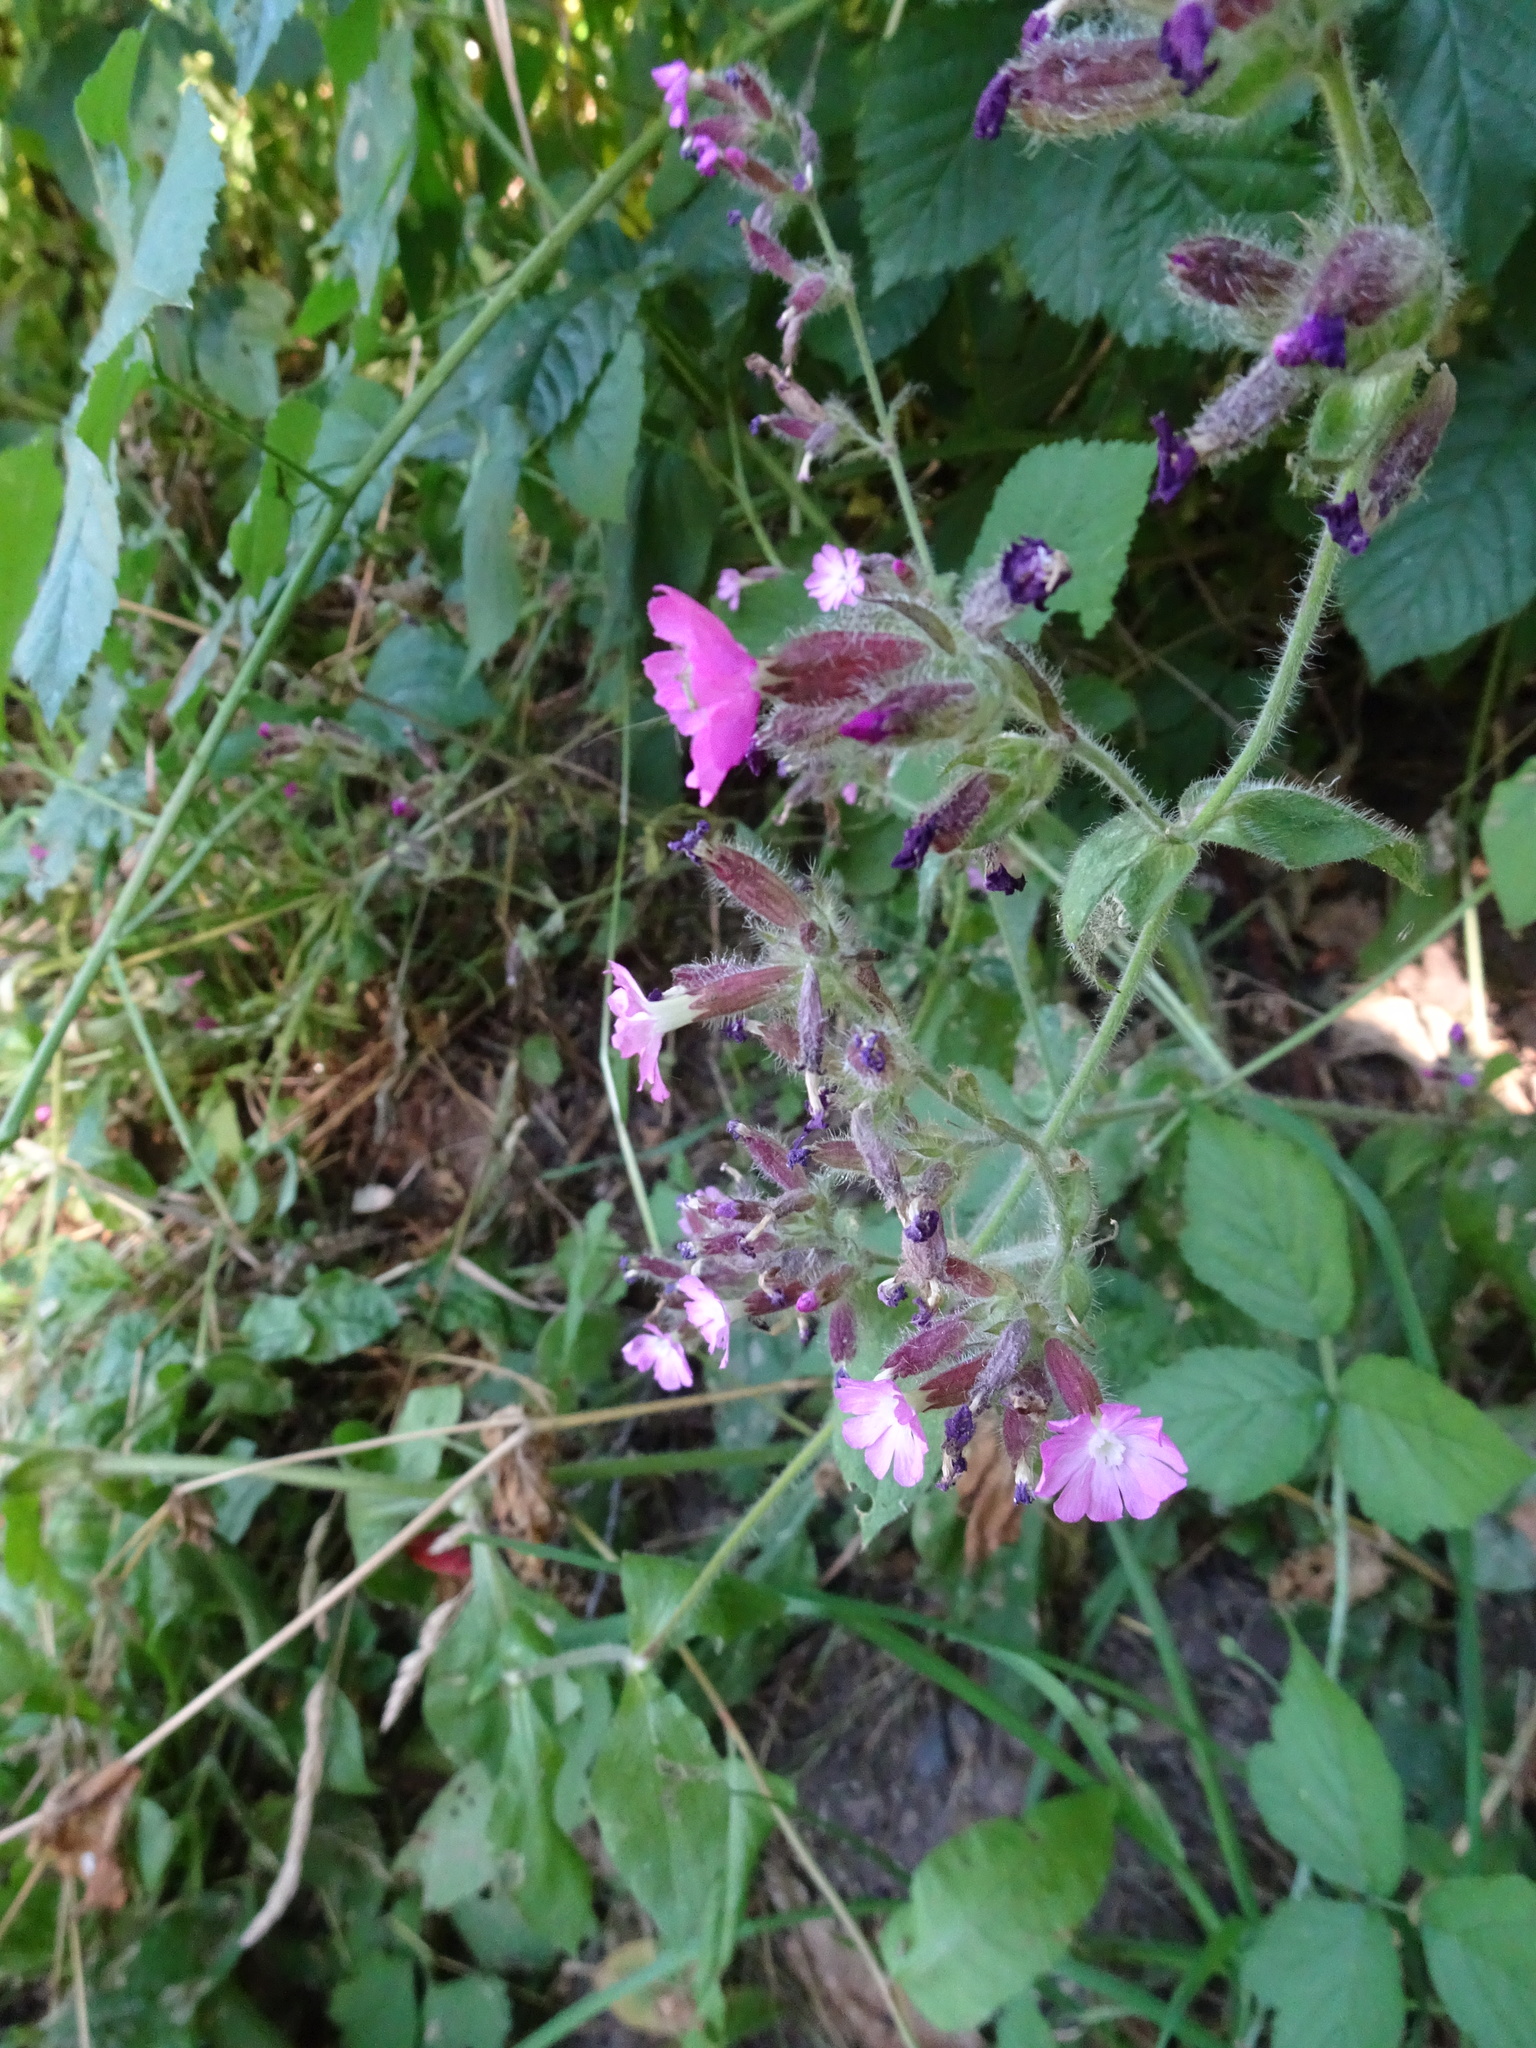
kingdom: Plantae
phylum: Tracheophyta
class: Magnoliopsida
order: Caryophyllales
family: Caryophyllaceae
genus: Silene
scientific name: Silene dioica
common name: Red campion
